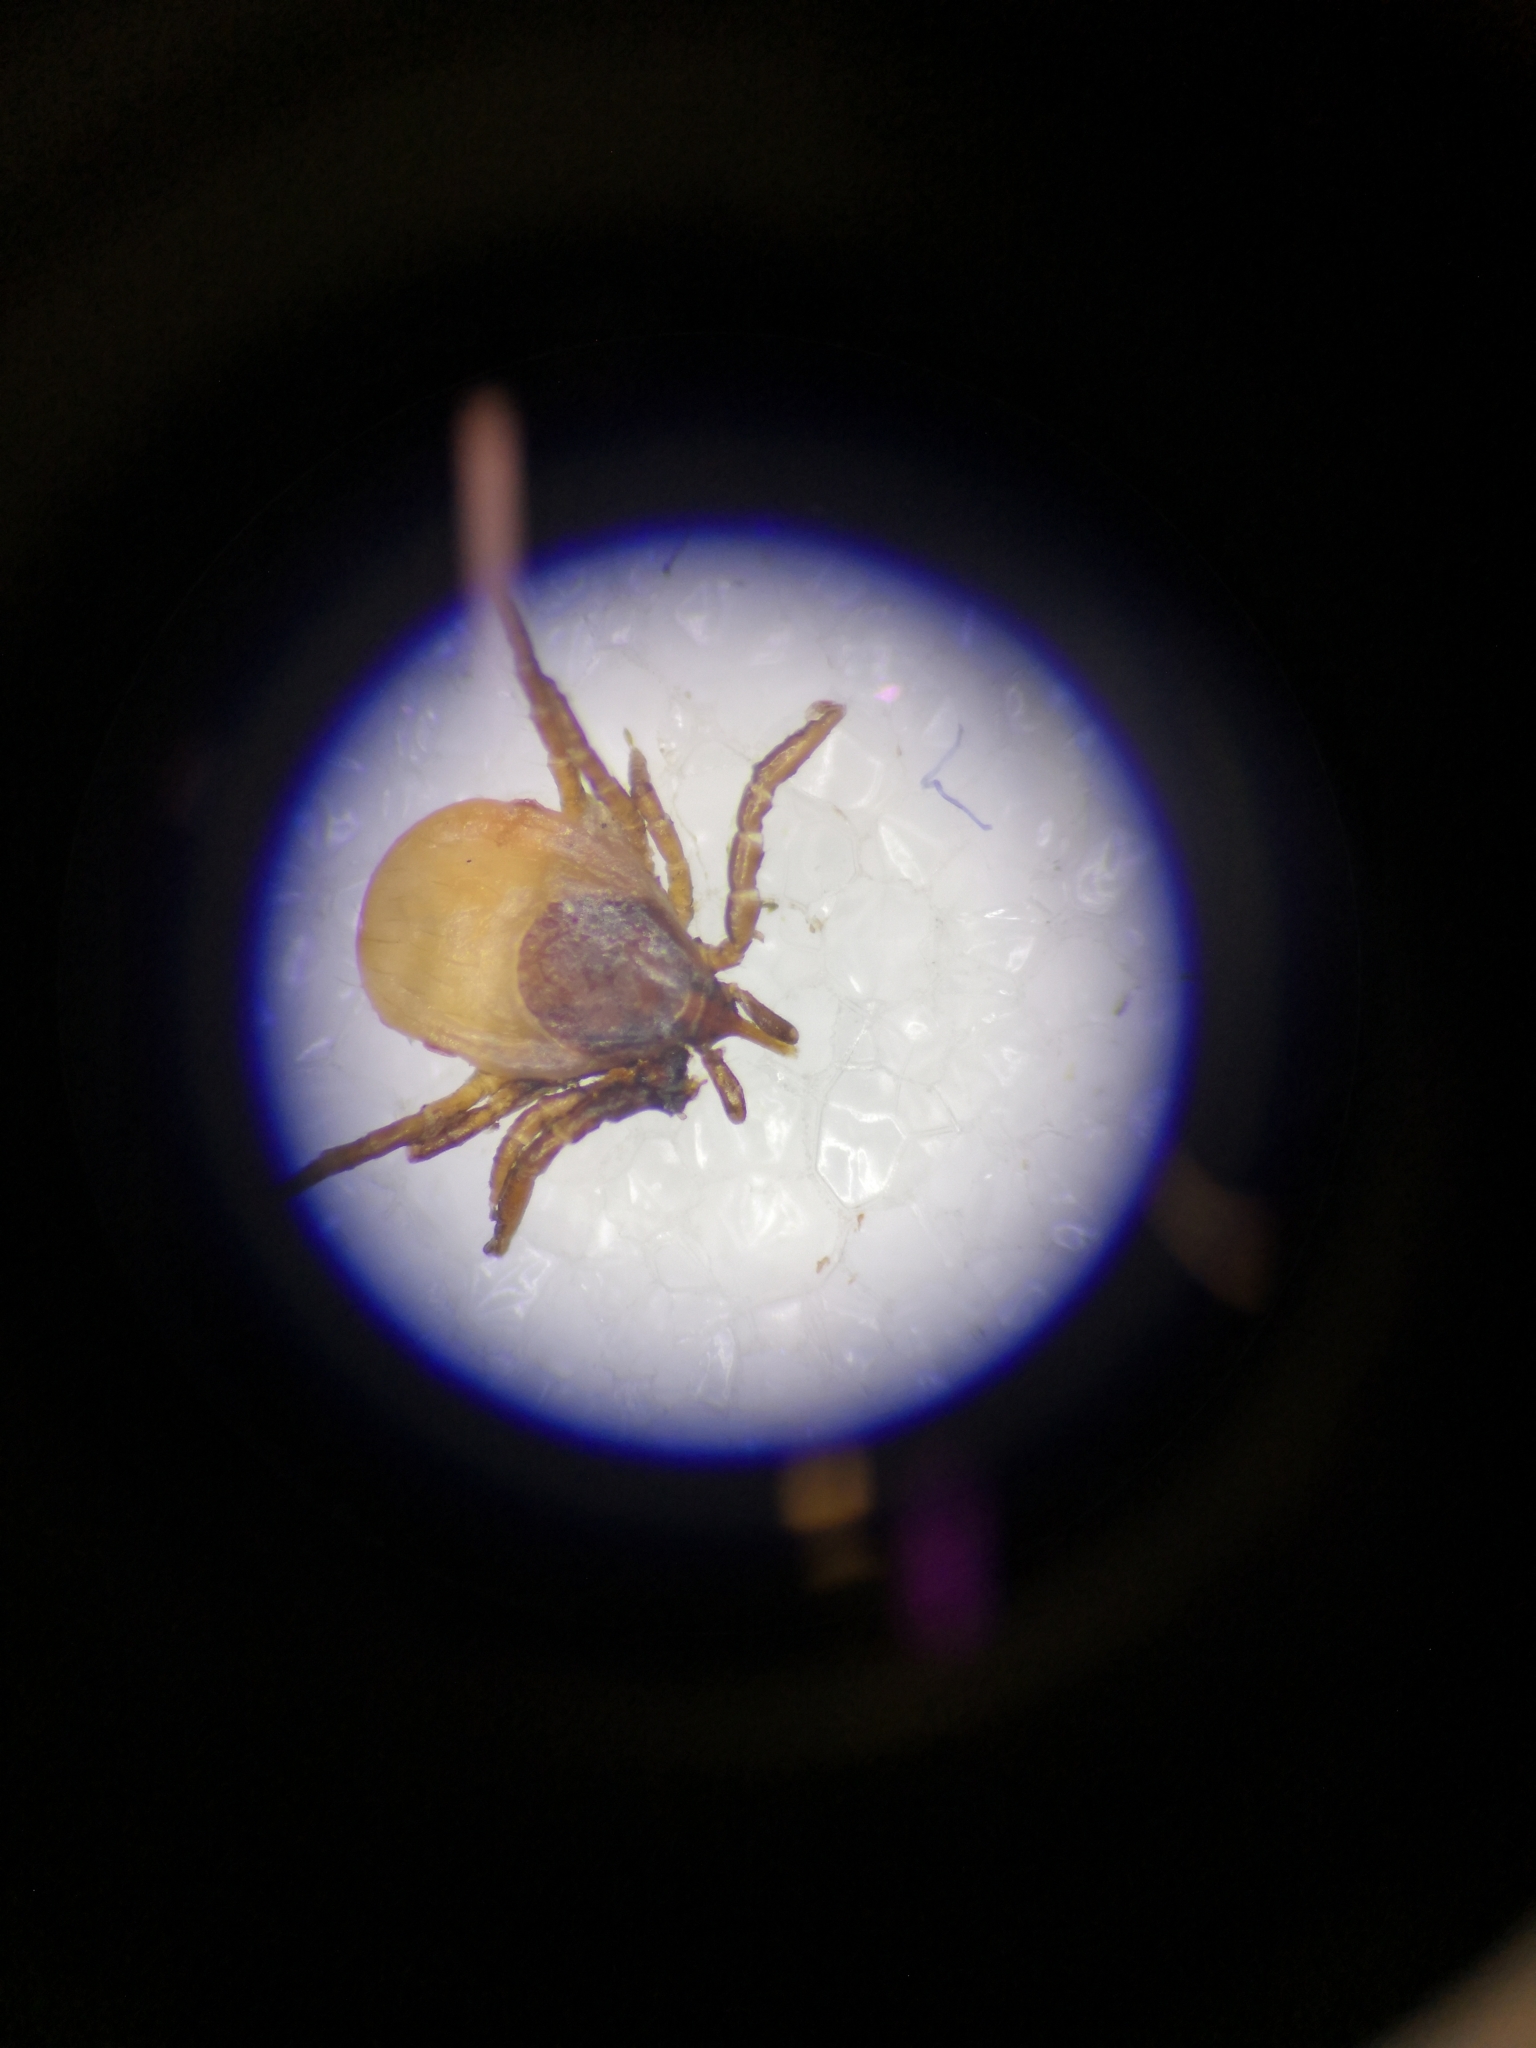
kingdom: Animalia
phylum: Arthropoda
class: Arachnida
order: Ixodida
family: Ixodidae
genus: Ixodes
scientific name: Ixodes ricinus
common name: Castor bean tick
